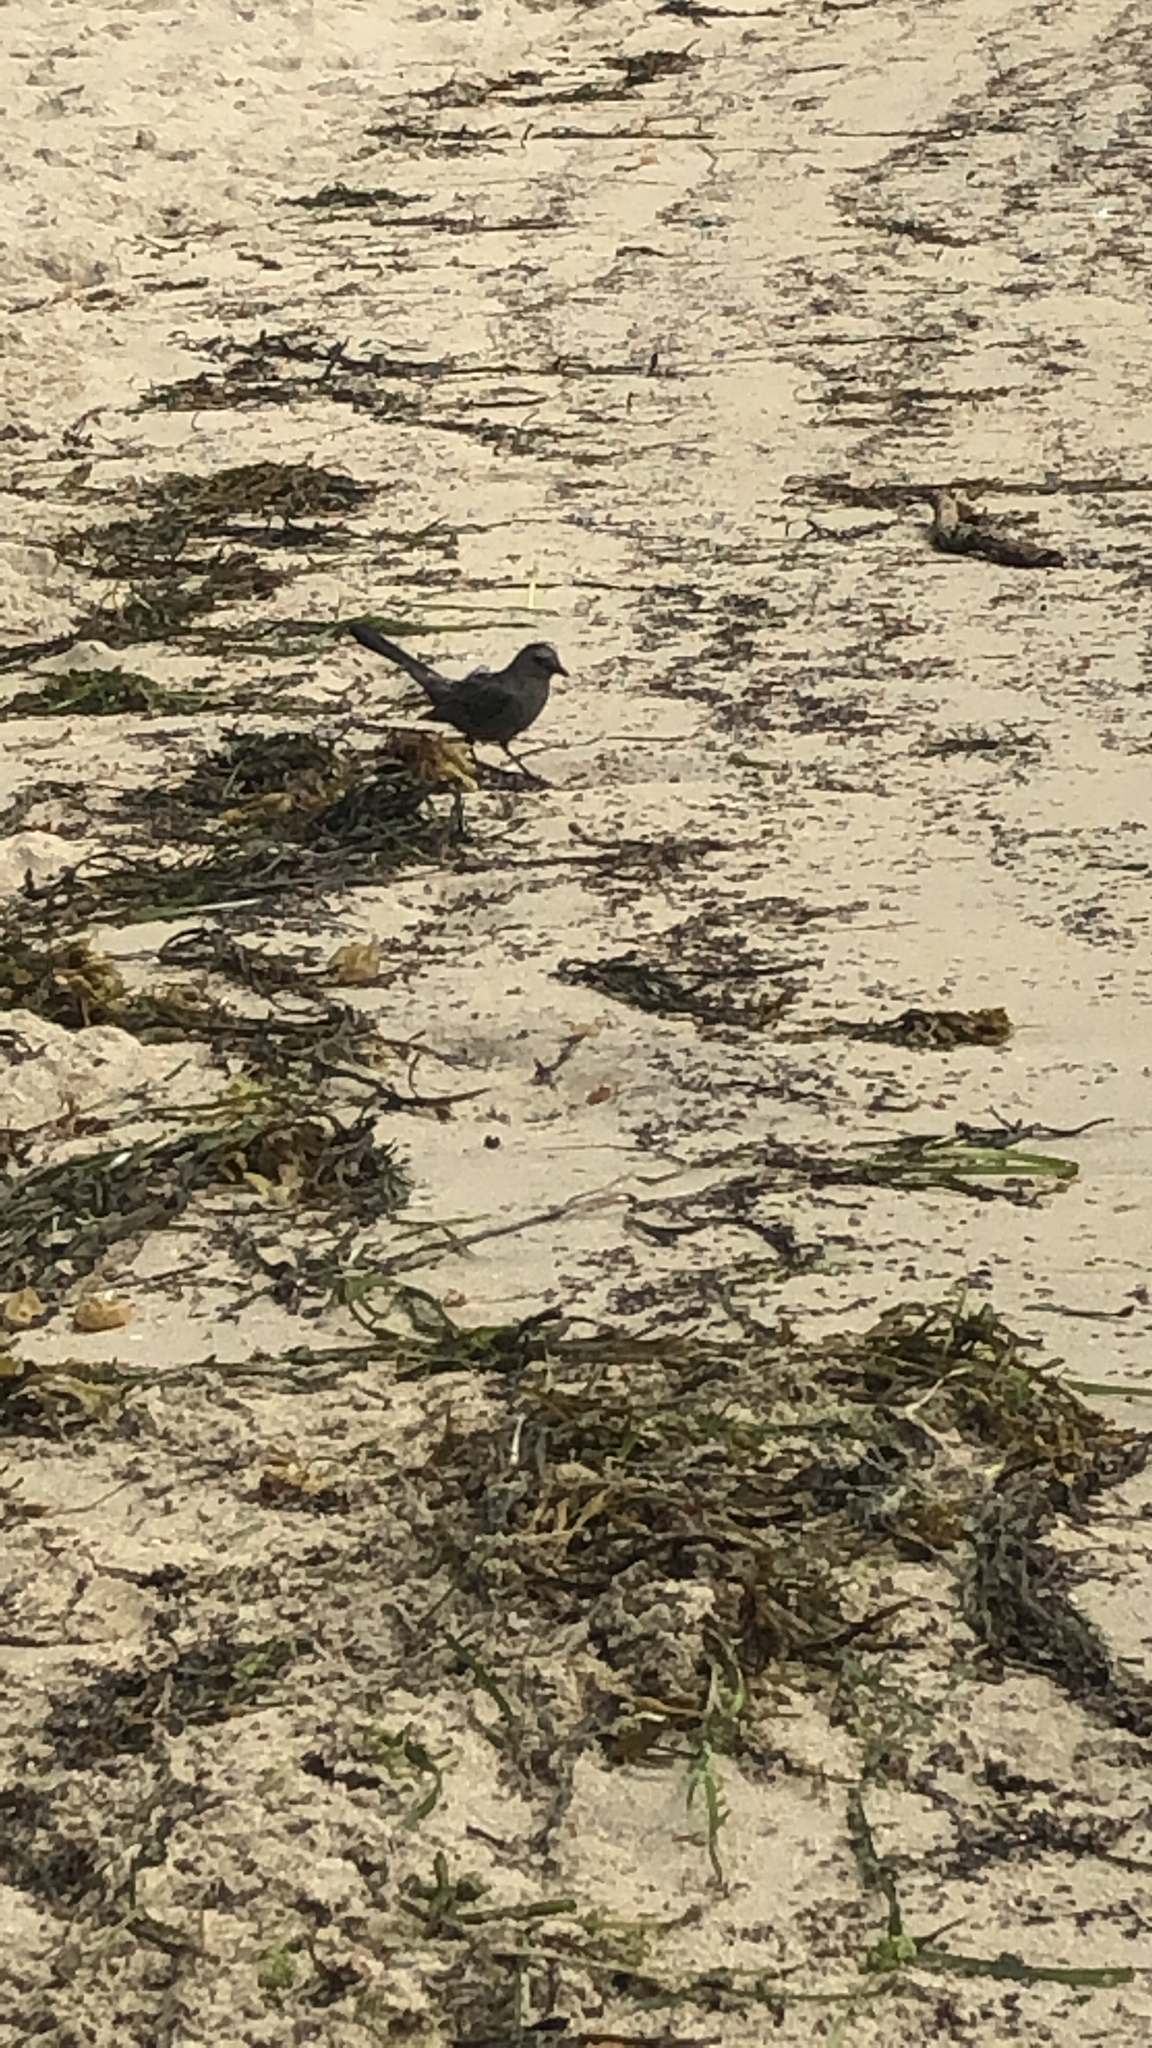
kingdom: Animalia
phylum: Chordata
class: Aves
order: Passeriformes
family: Mimidae
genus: Dumetella
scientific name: Dumetella carolinensis
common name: Gray catbird
